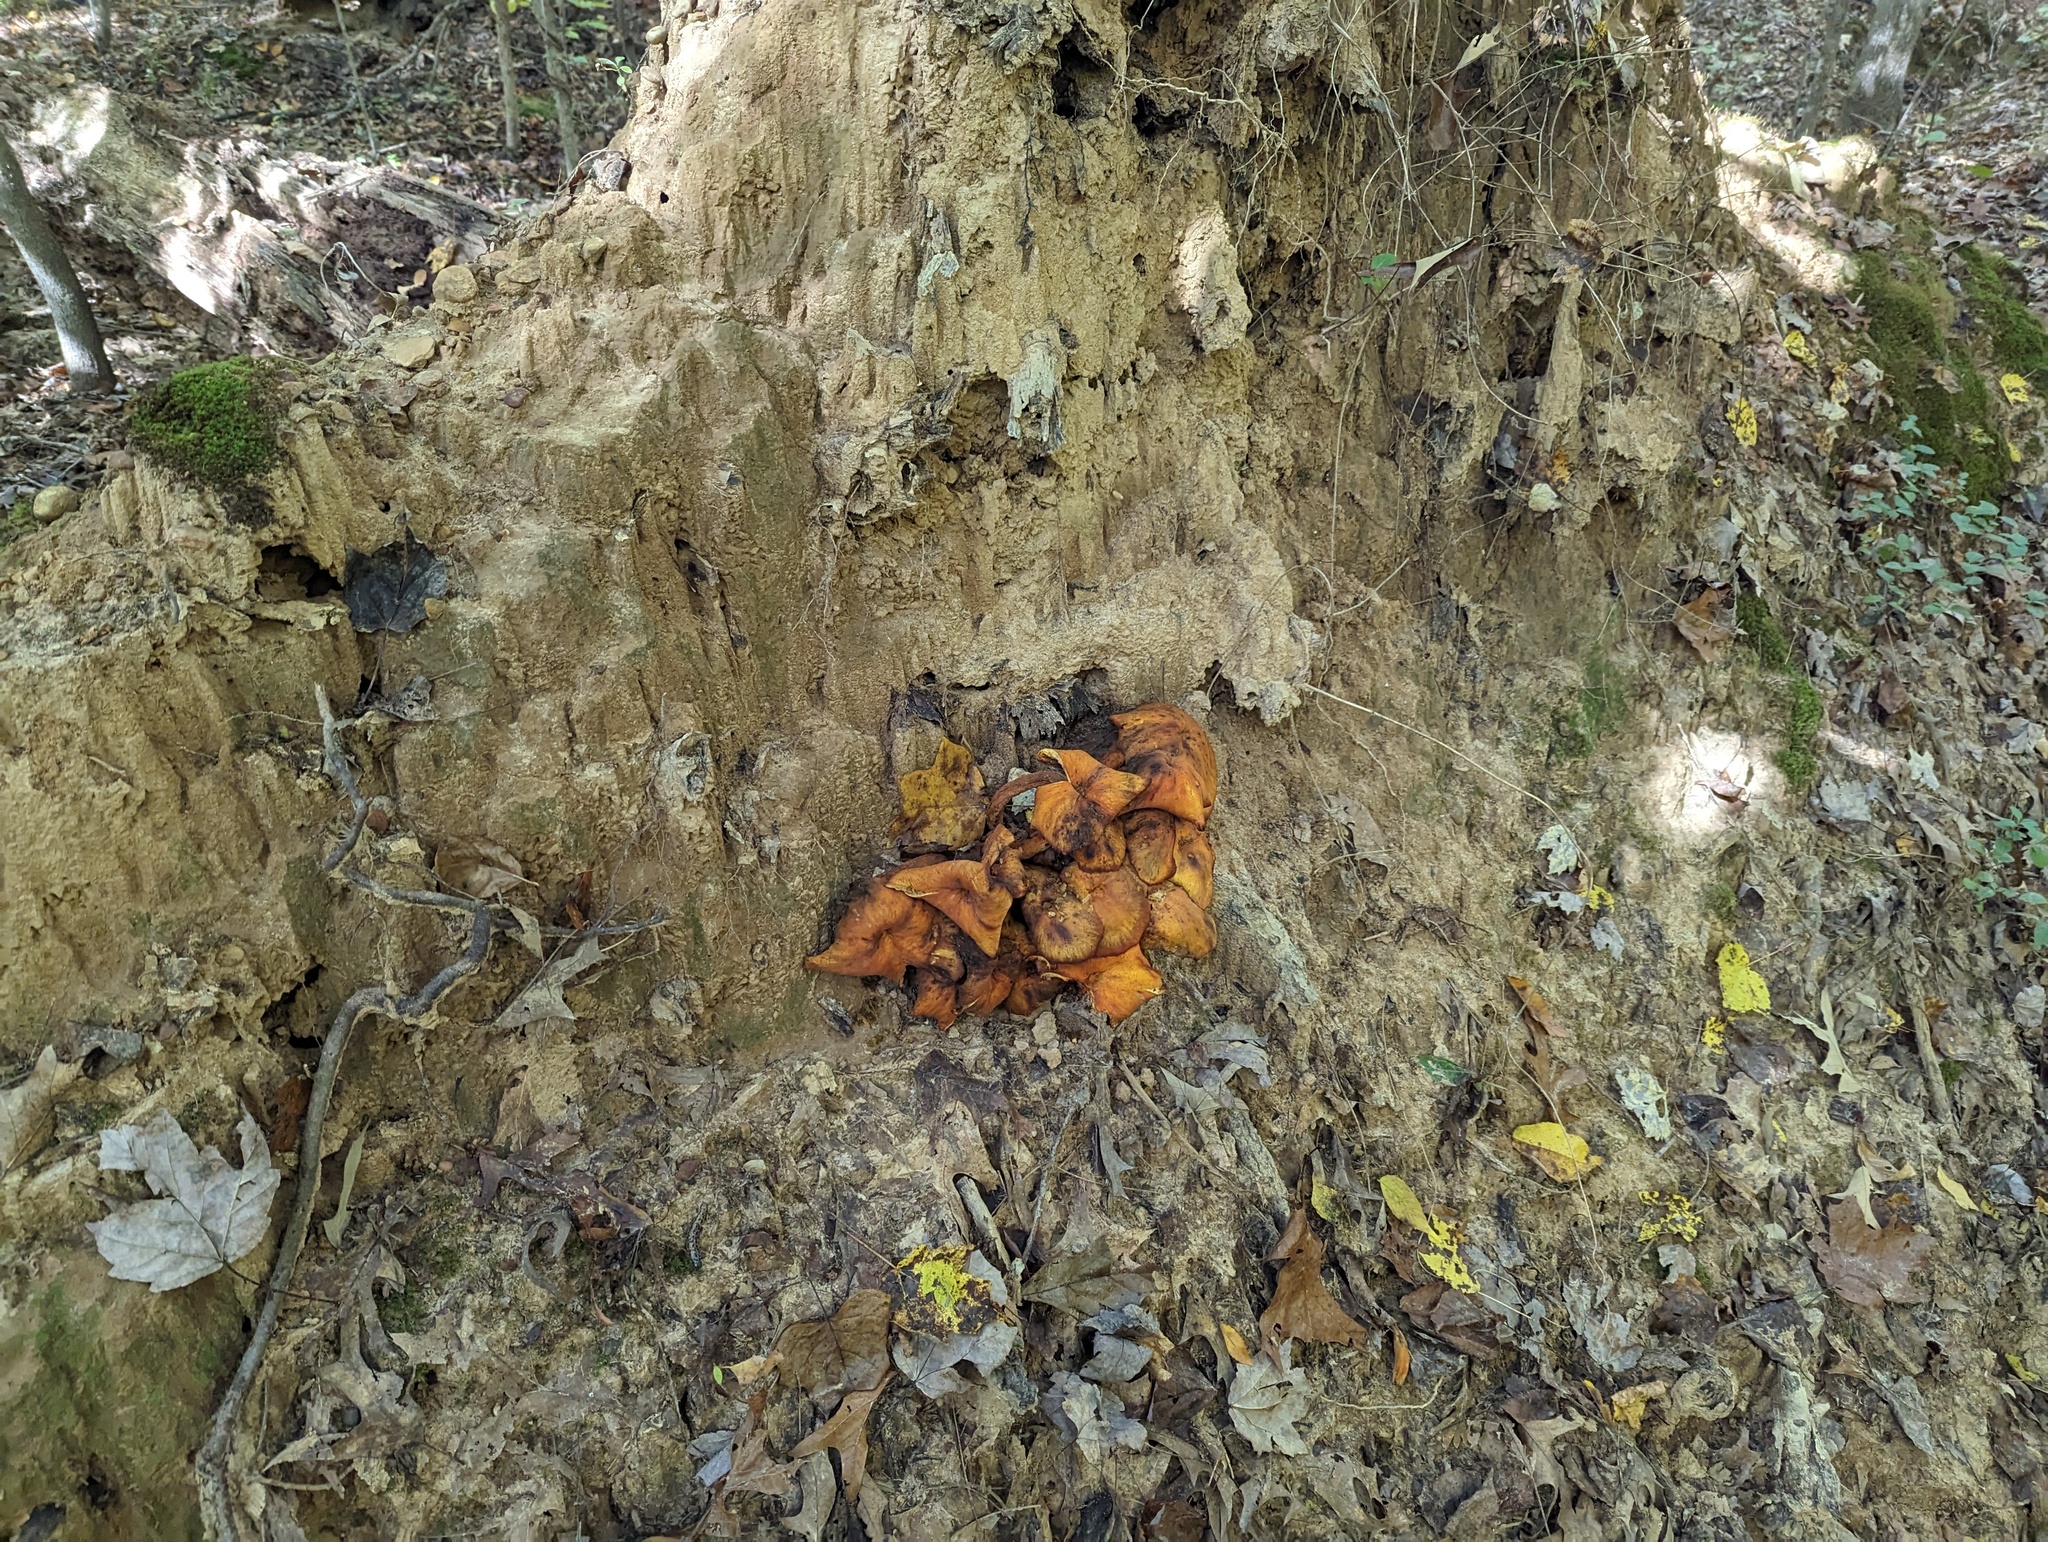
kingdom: Fungi
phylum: Basidiomycota
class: Agaricomycetes
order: Agaricales
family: Omphalotaceae
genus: Omphalotus
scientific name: Omphalotus illudens
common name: Jack o lantern
